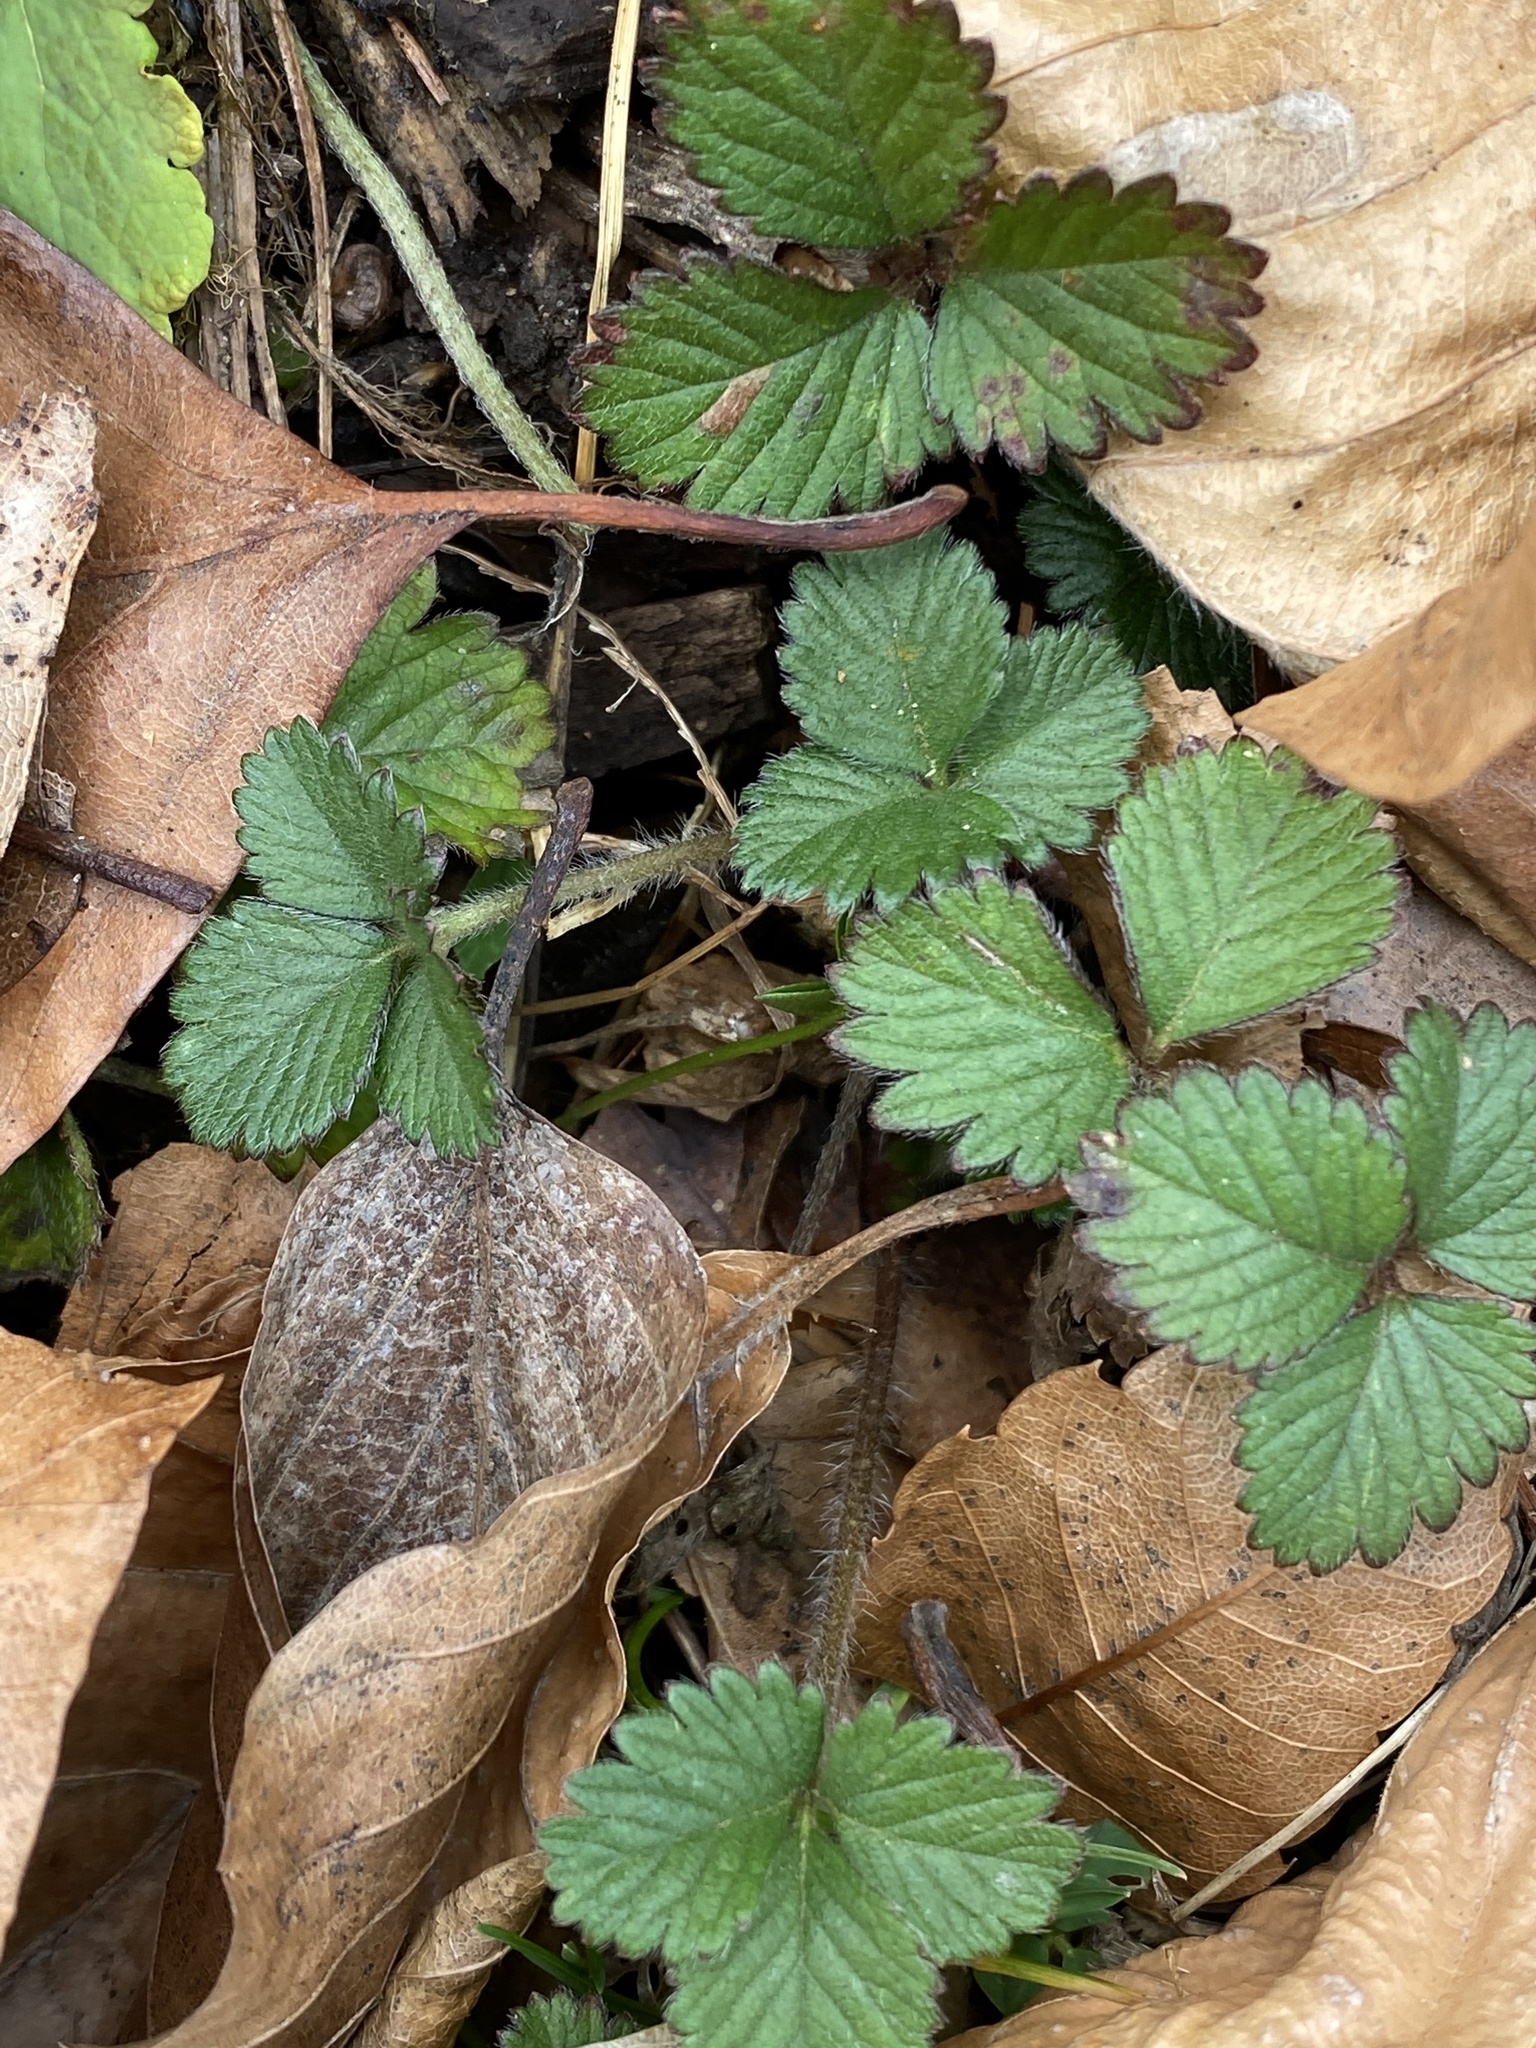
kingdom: Plantae
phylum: Tracheophyta
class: Magnoliopsida
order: Rosales
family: Rosaceae
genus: Potentilla
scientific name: Potentilla indica
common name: Yellow-flowered strawberry
